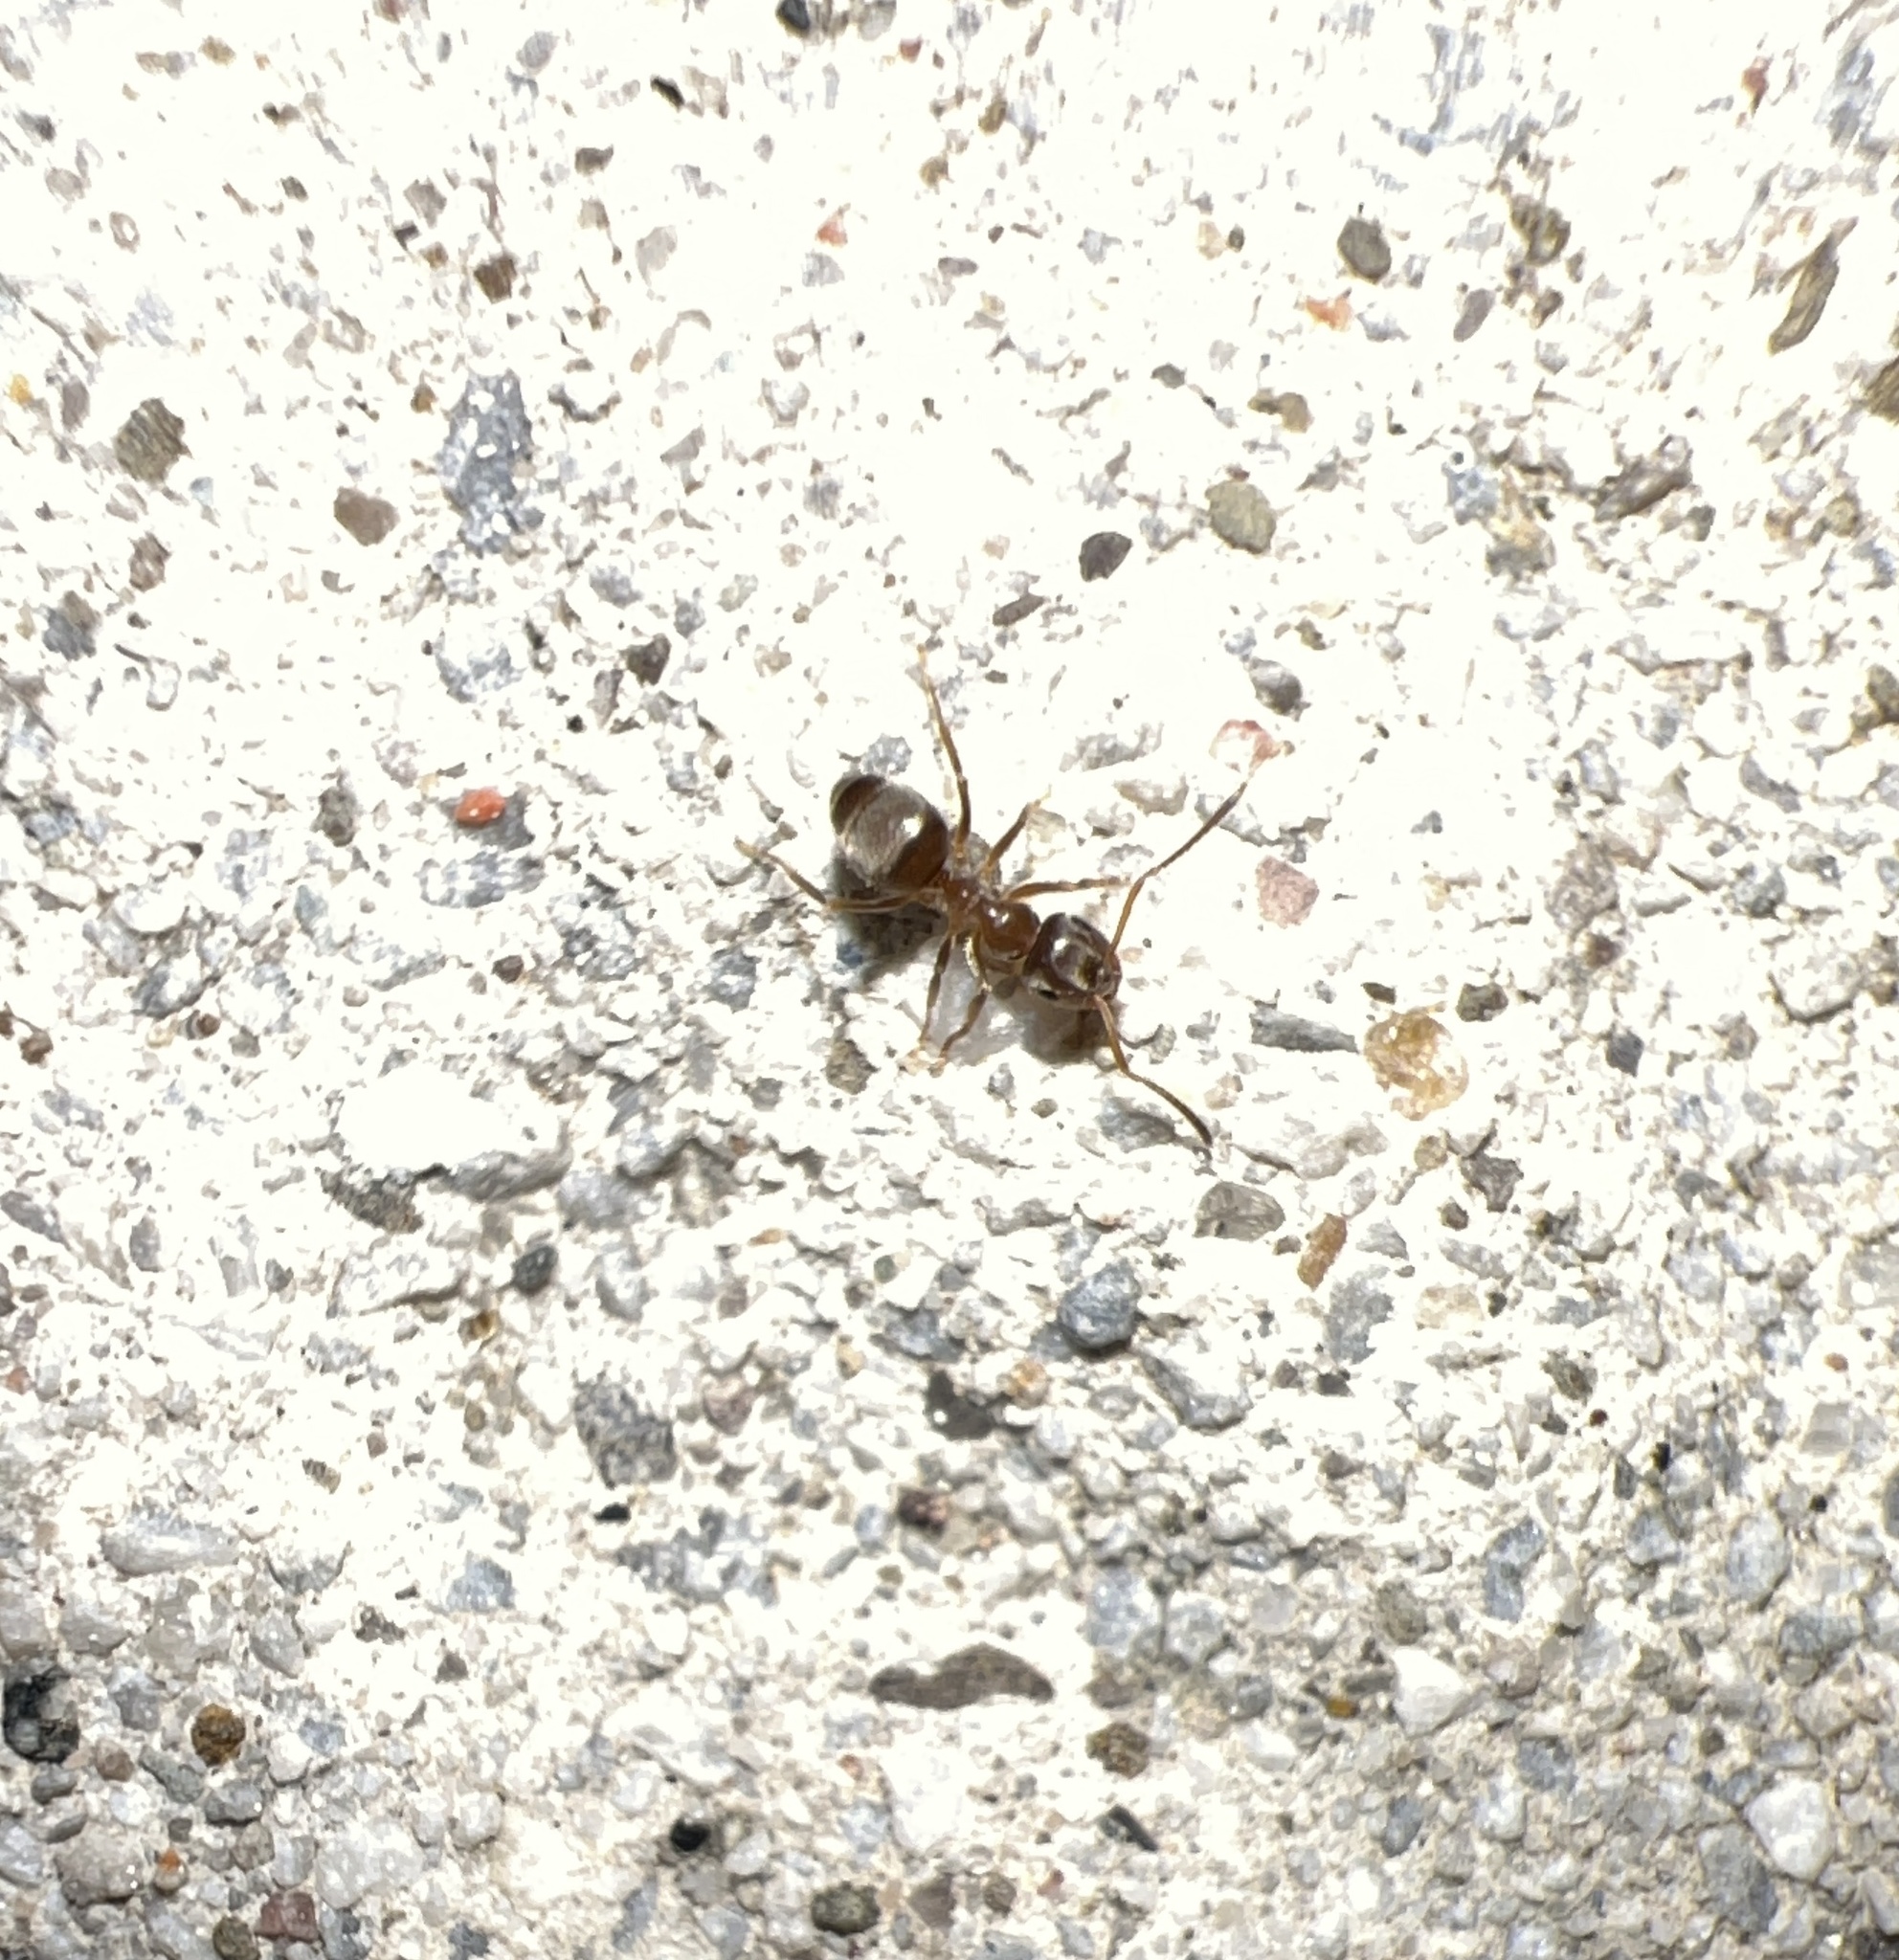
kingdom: Animalia
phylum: Arthropoda
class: Insecta
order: Hymenoptera
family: Formicidae
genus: Lasius
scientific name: Lasius neoniger
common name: Turfgrass ant
